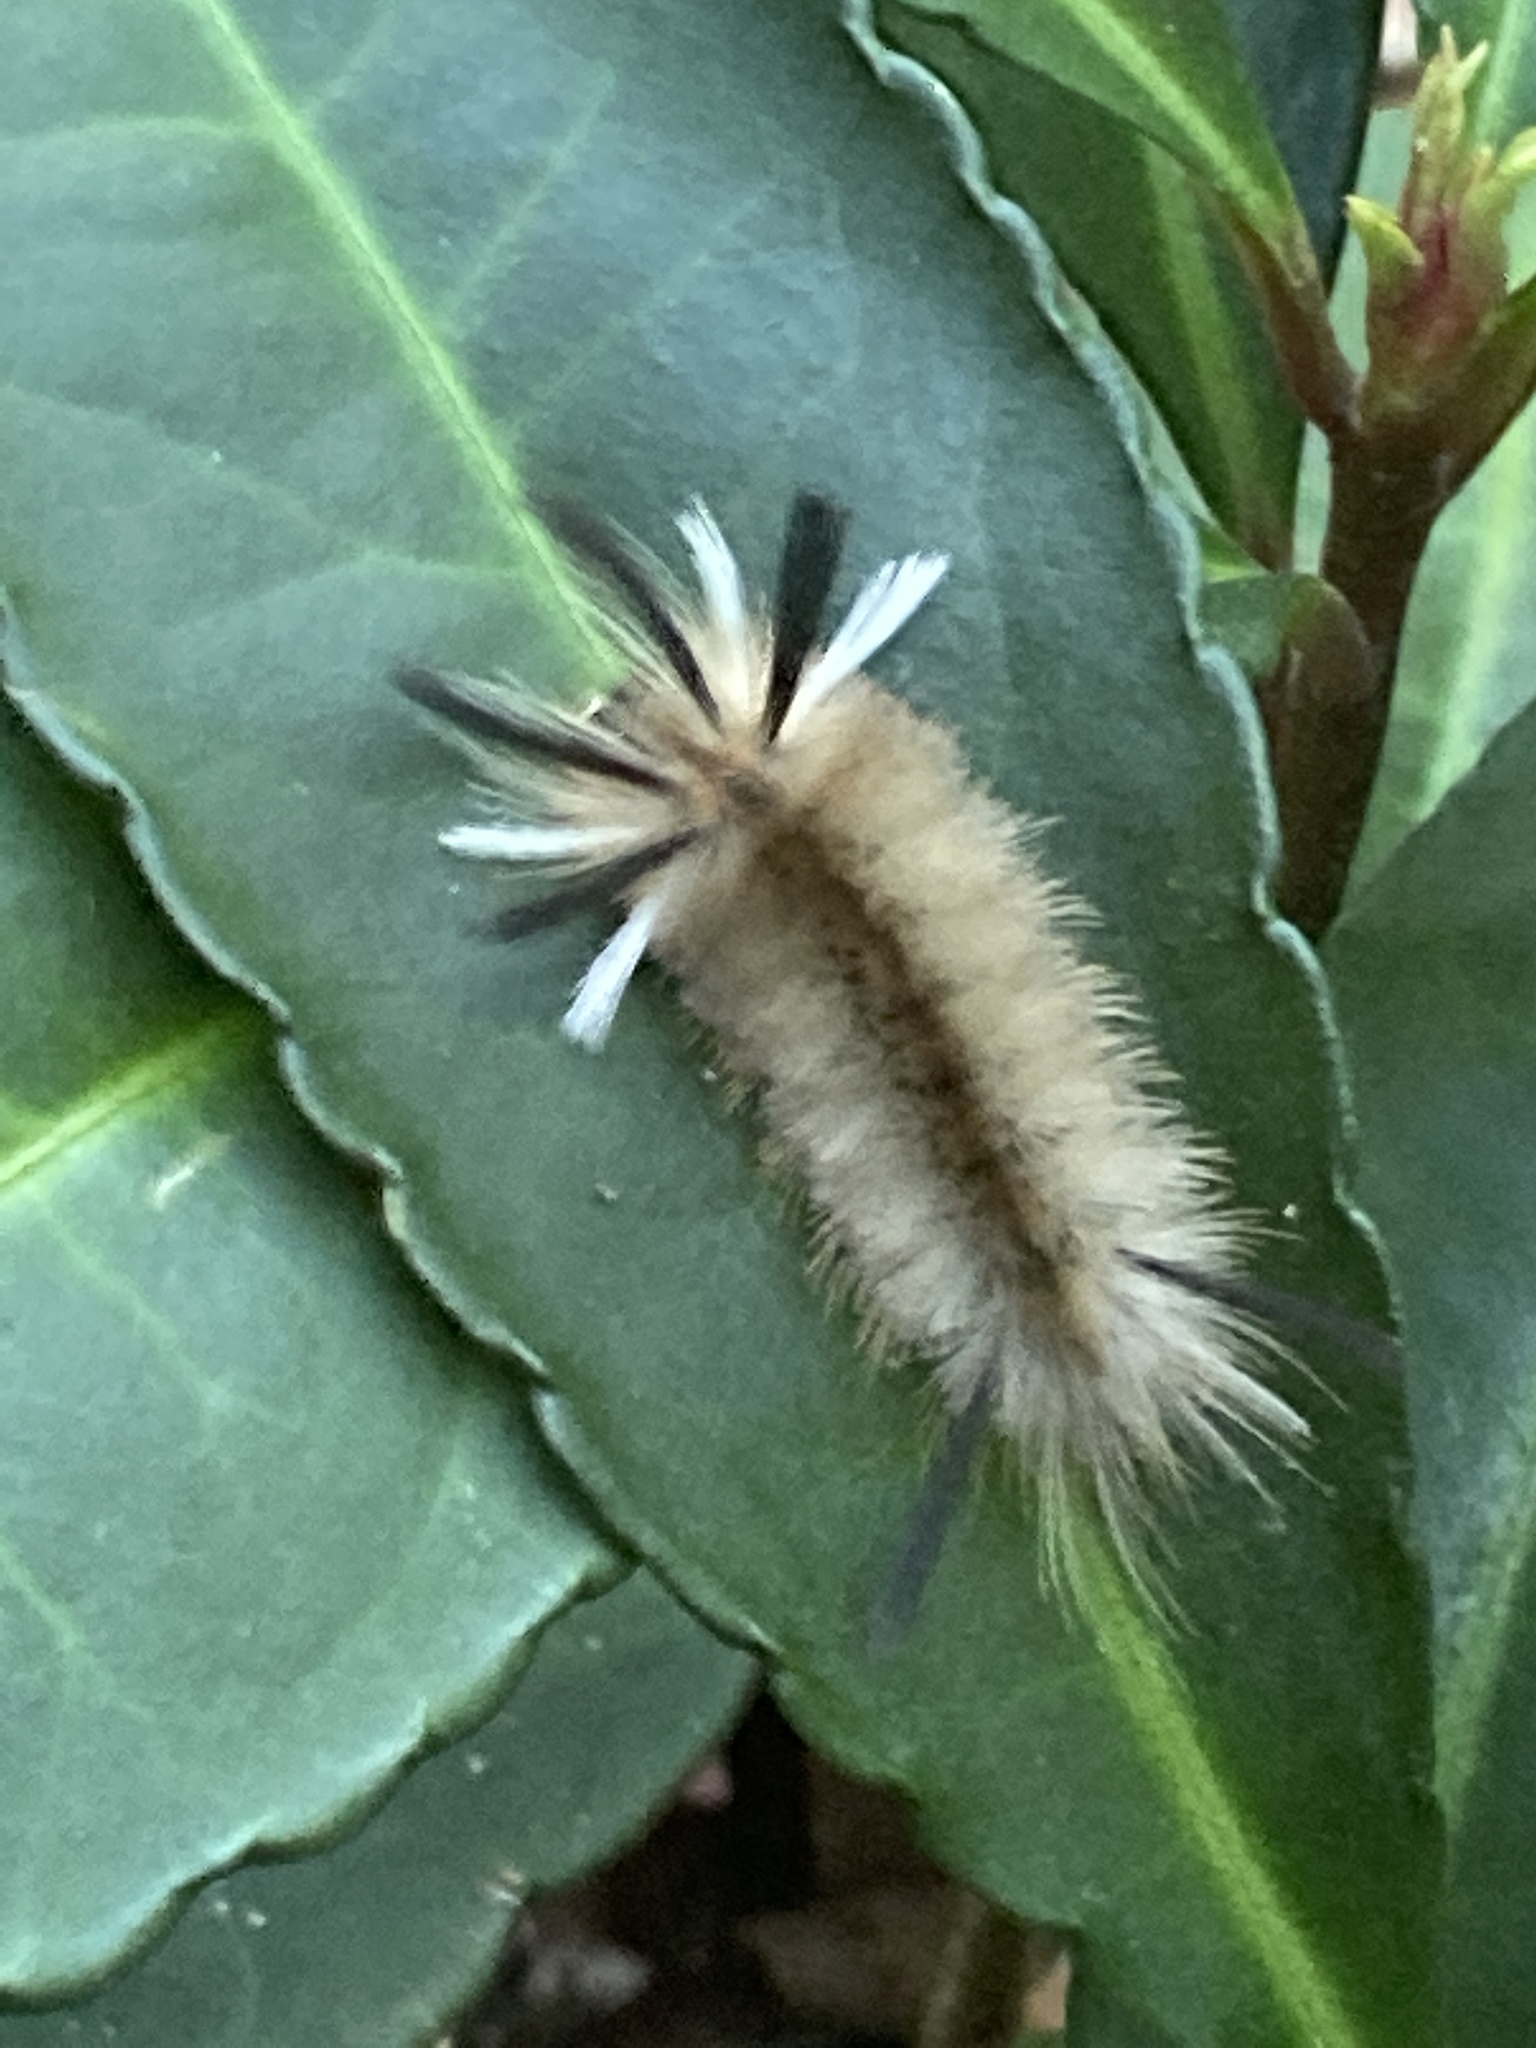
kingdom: Animalia
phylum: Arthropoda
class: Insecta
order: Lepidoptera
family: Erebidae
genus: Halysidota
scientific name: Halysidota tessellaris
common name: Banded tussock moth
